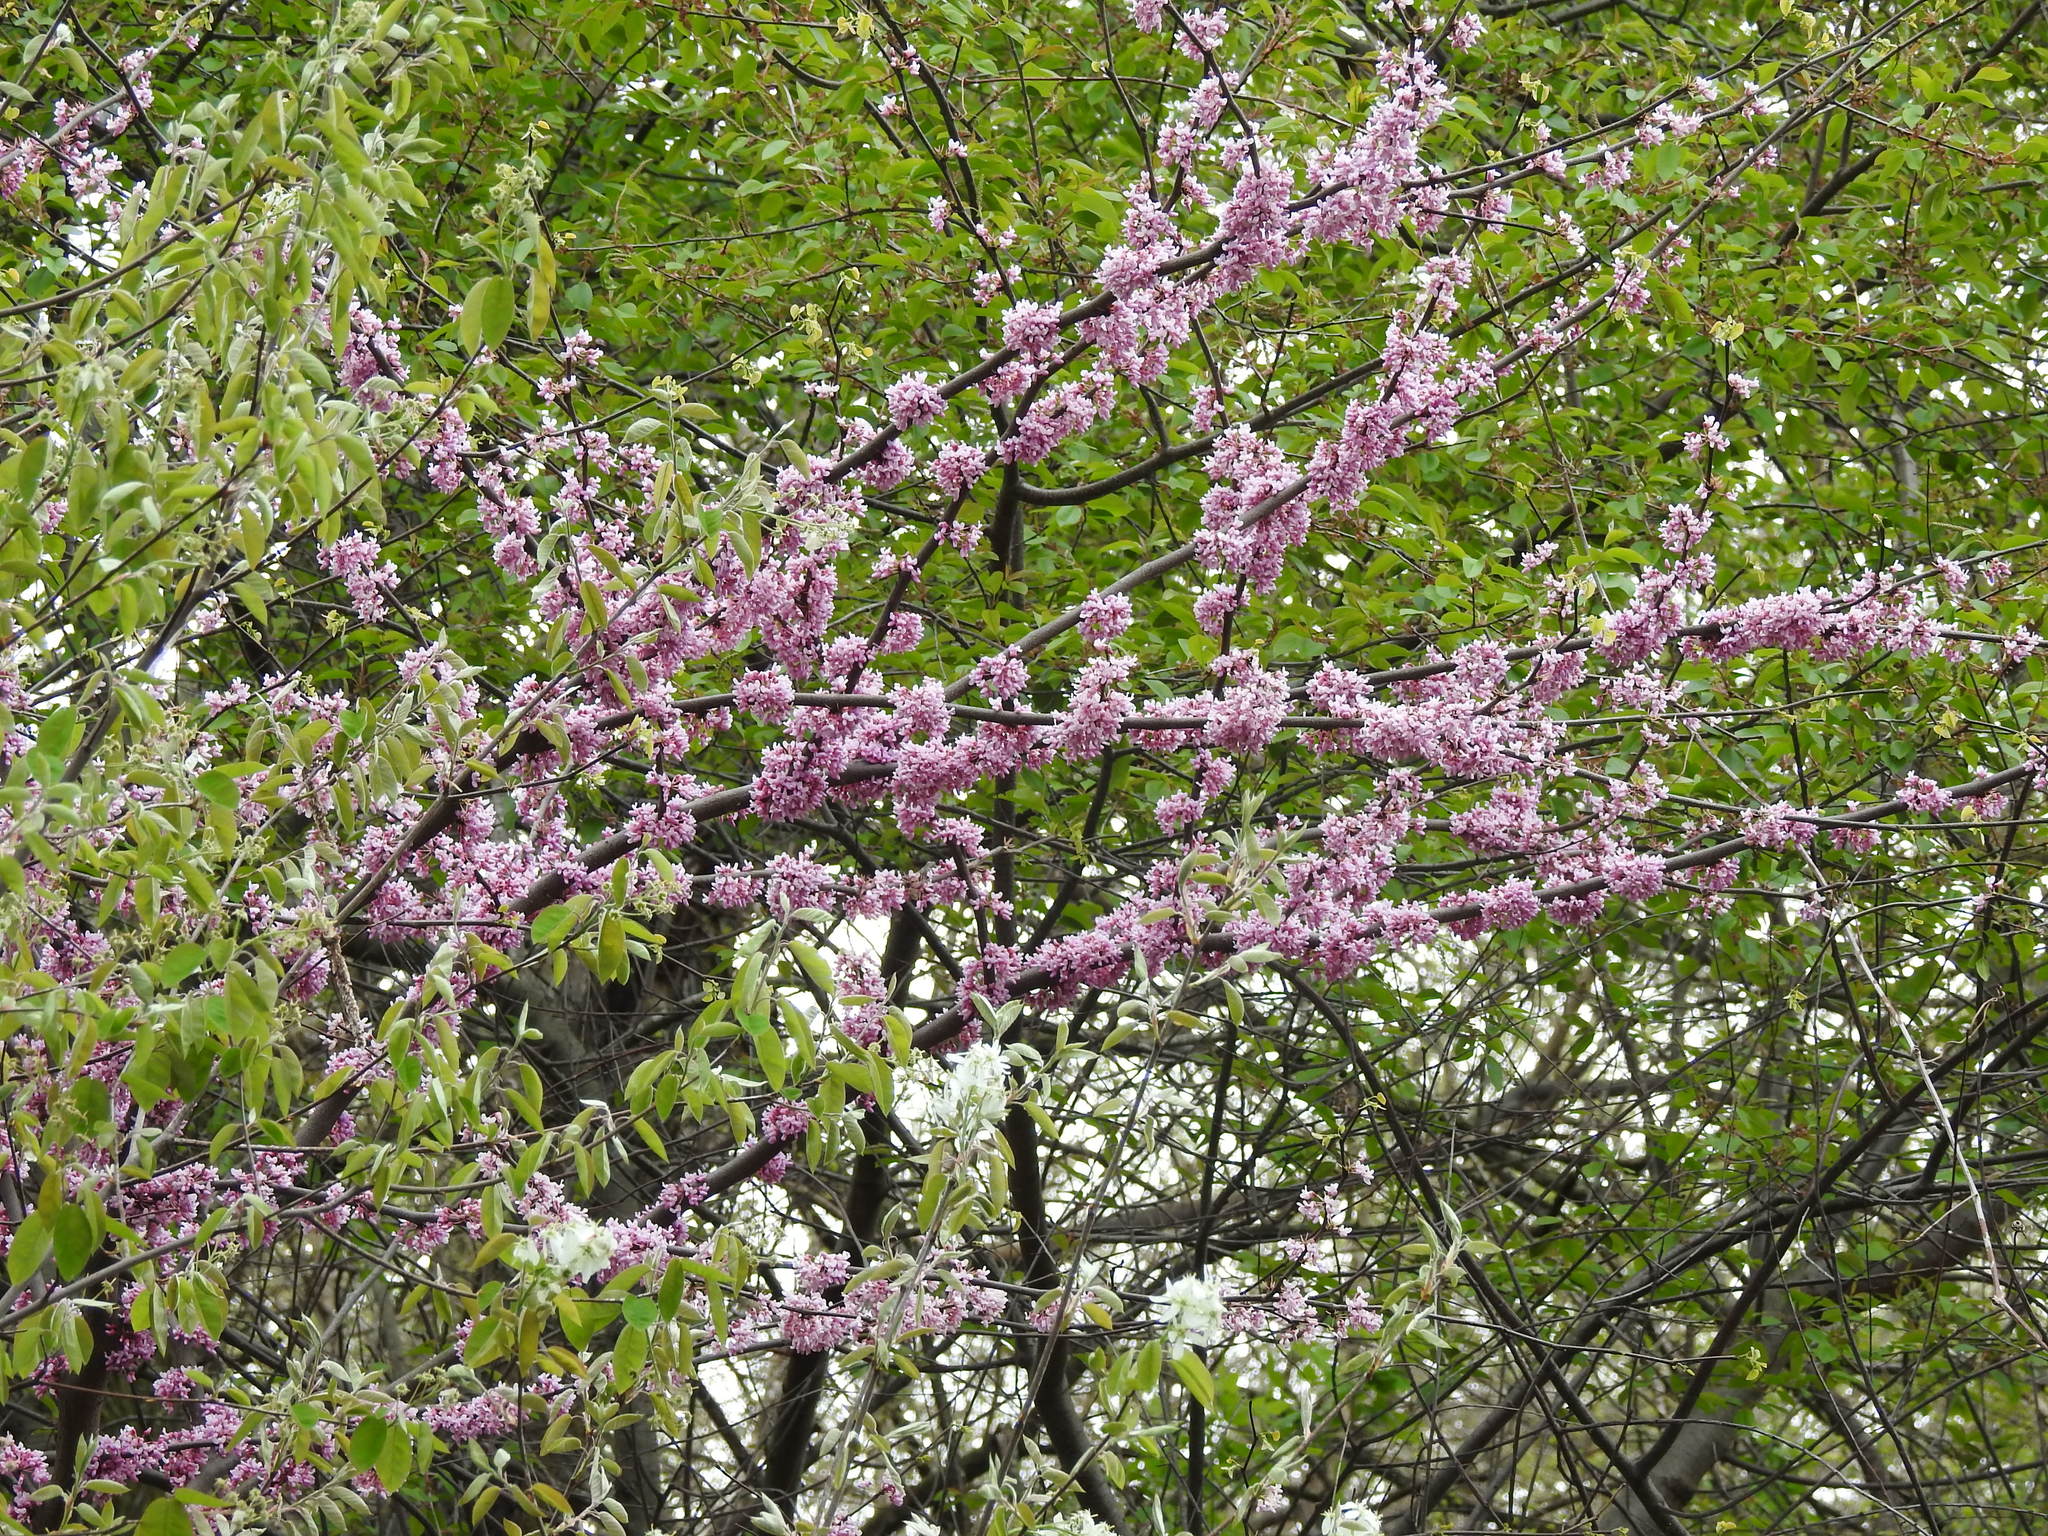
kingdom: Plantae
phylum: Tracheophyta
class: Magnoliopsida
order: Fabales
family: Fabaceae
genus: Cercis
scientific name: Cercis canadensis
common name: Eastern redbud
